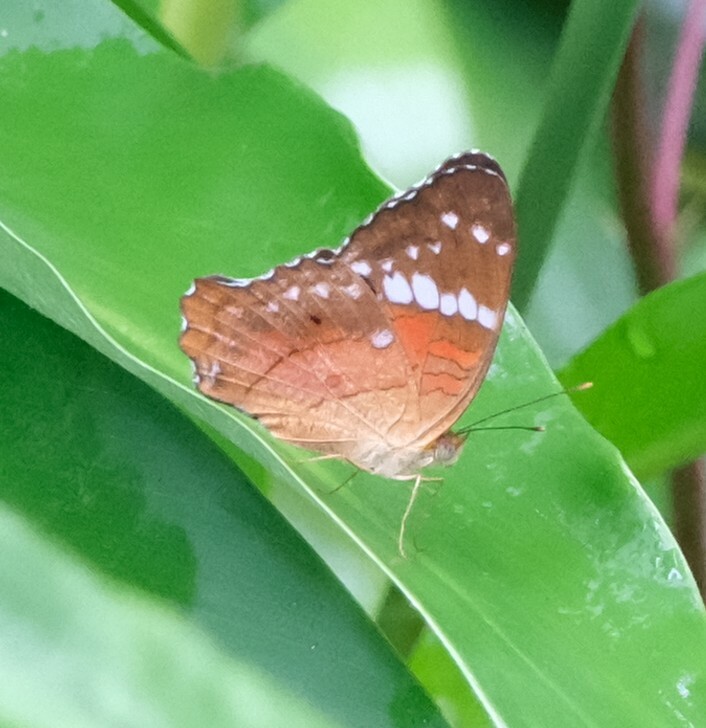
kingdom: Animalia
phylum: Arthropoda
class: Insecta
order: Lepidoptera
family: Nymphalidae
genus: Anartia
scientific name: Anartia amathea
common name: Red peacock
